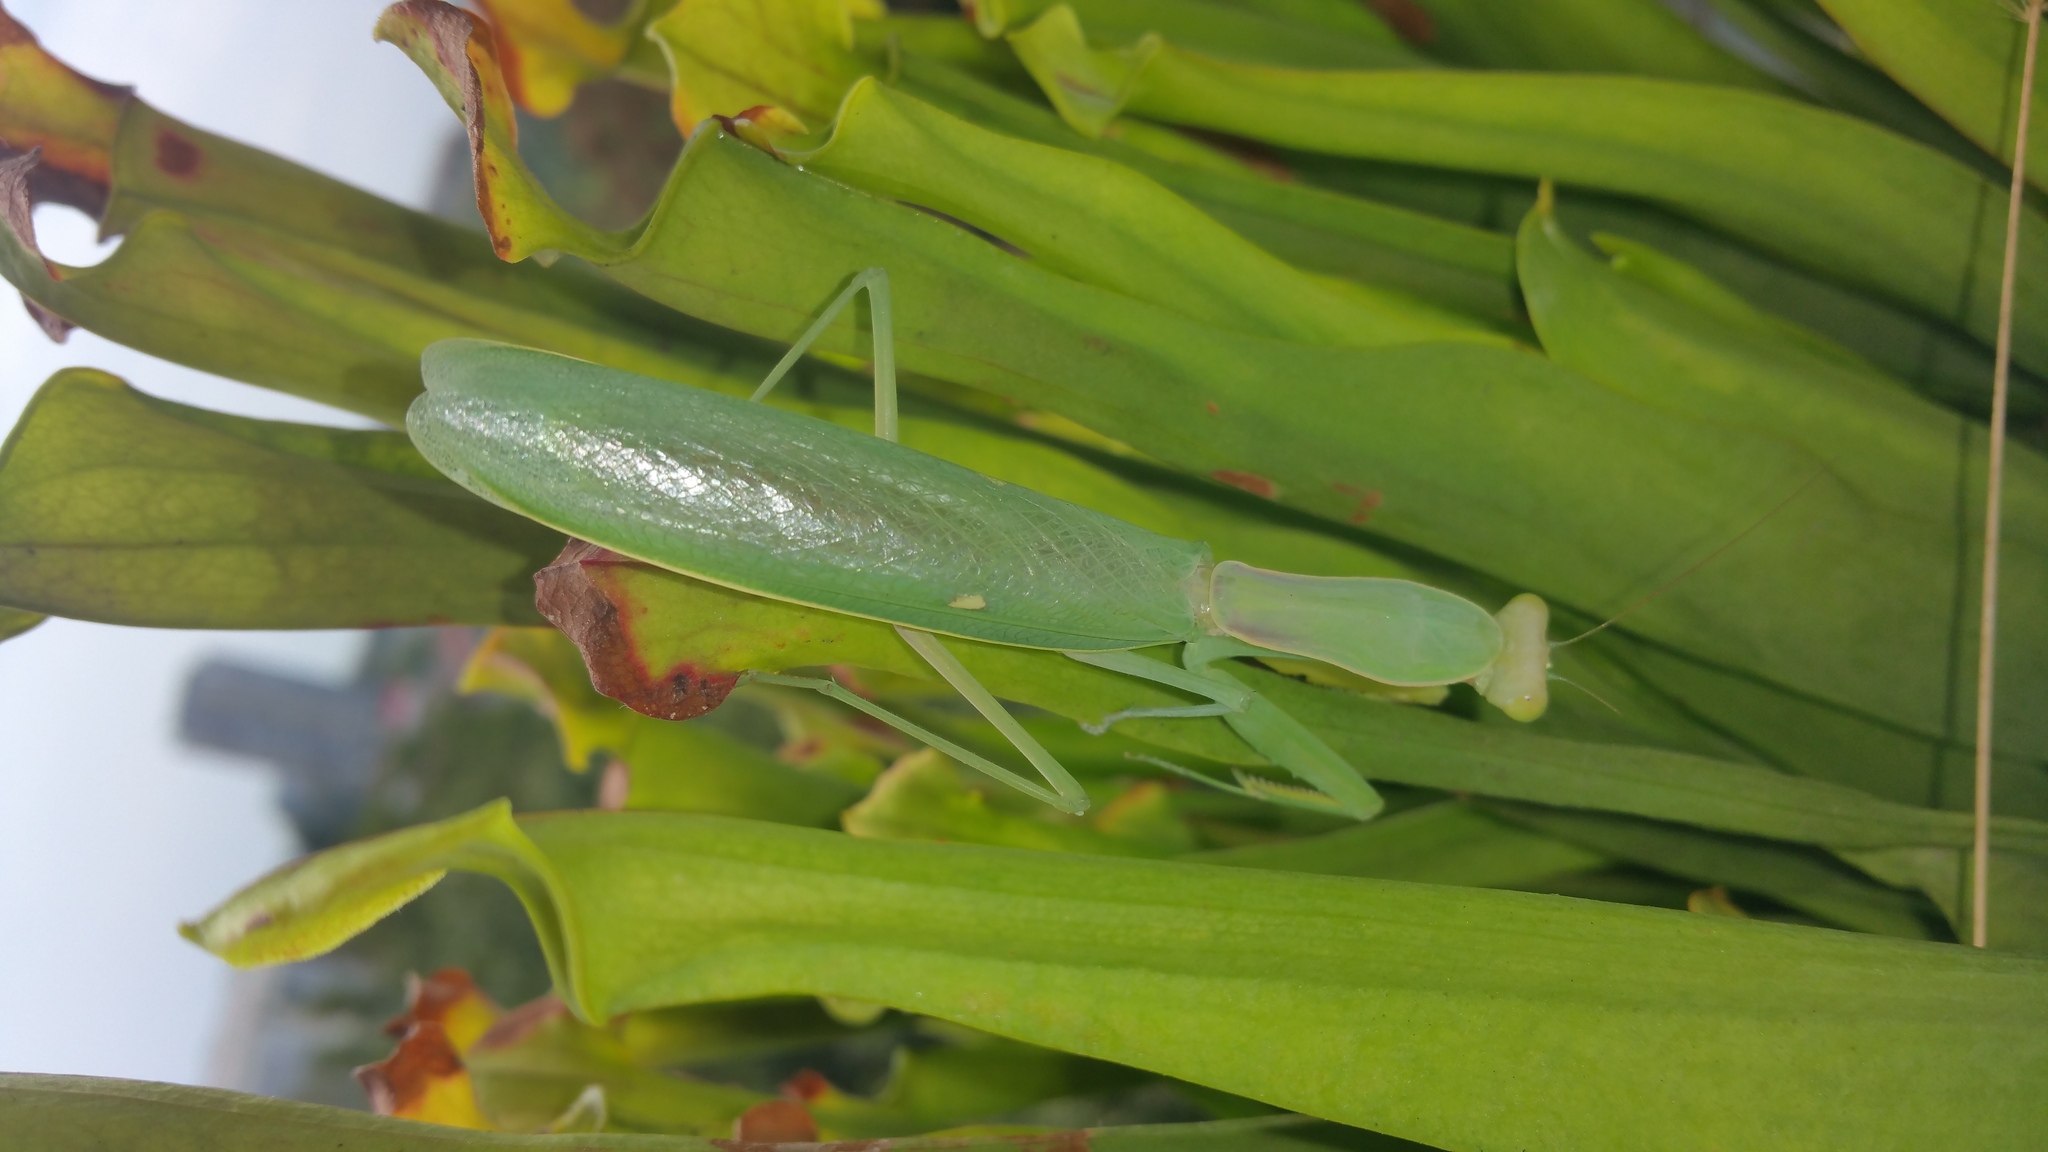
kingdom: Animalia
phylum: Arthropoda
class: Insecta
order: Mantodea
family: Mantidae
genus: Hierodula
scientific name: Hierodula transcaucasica
